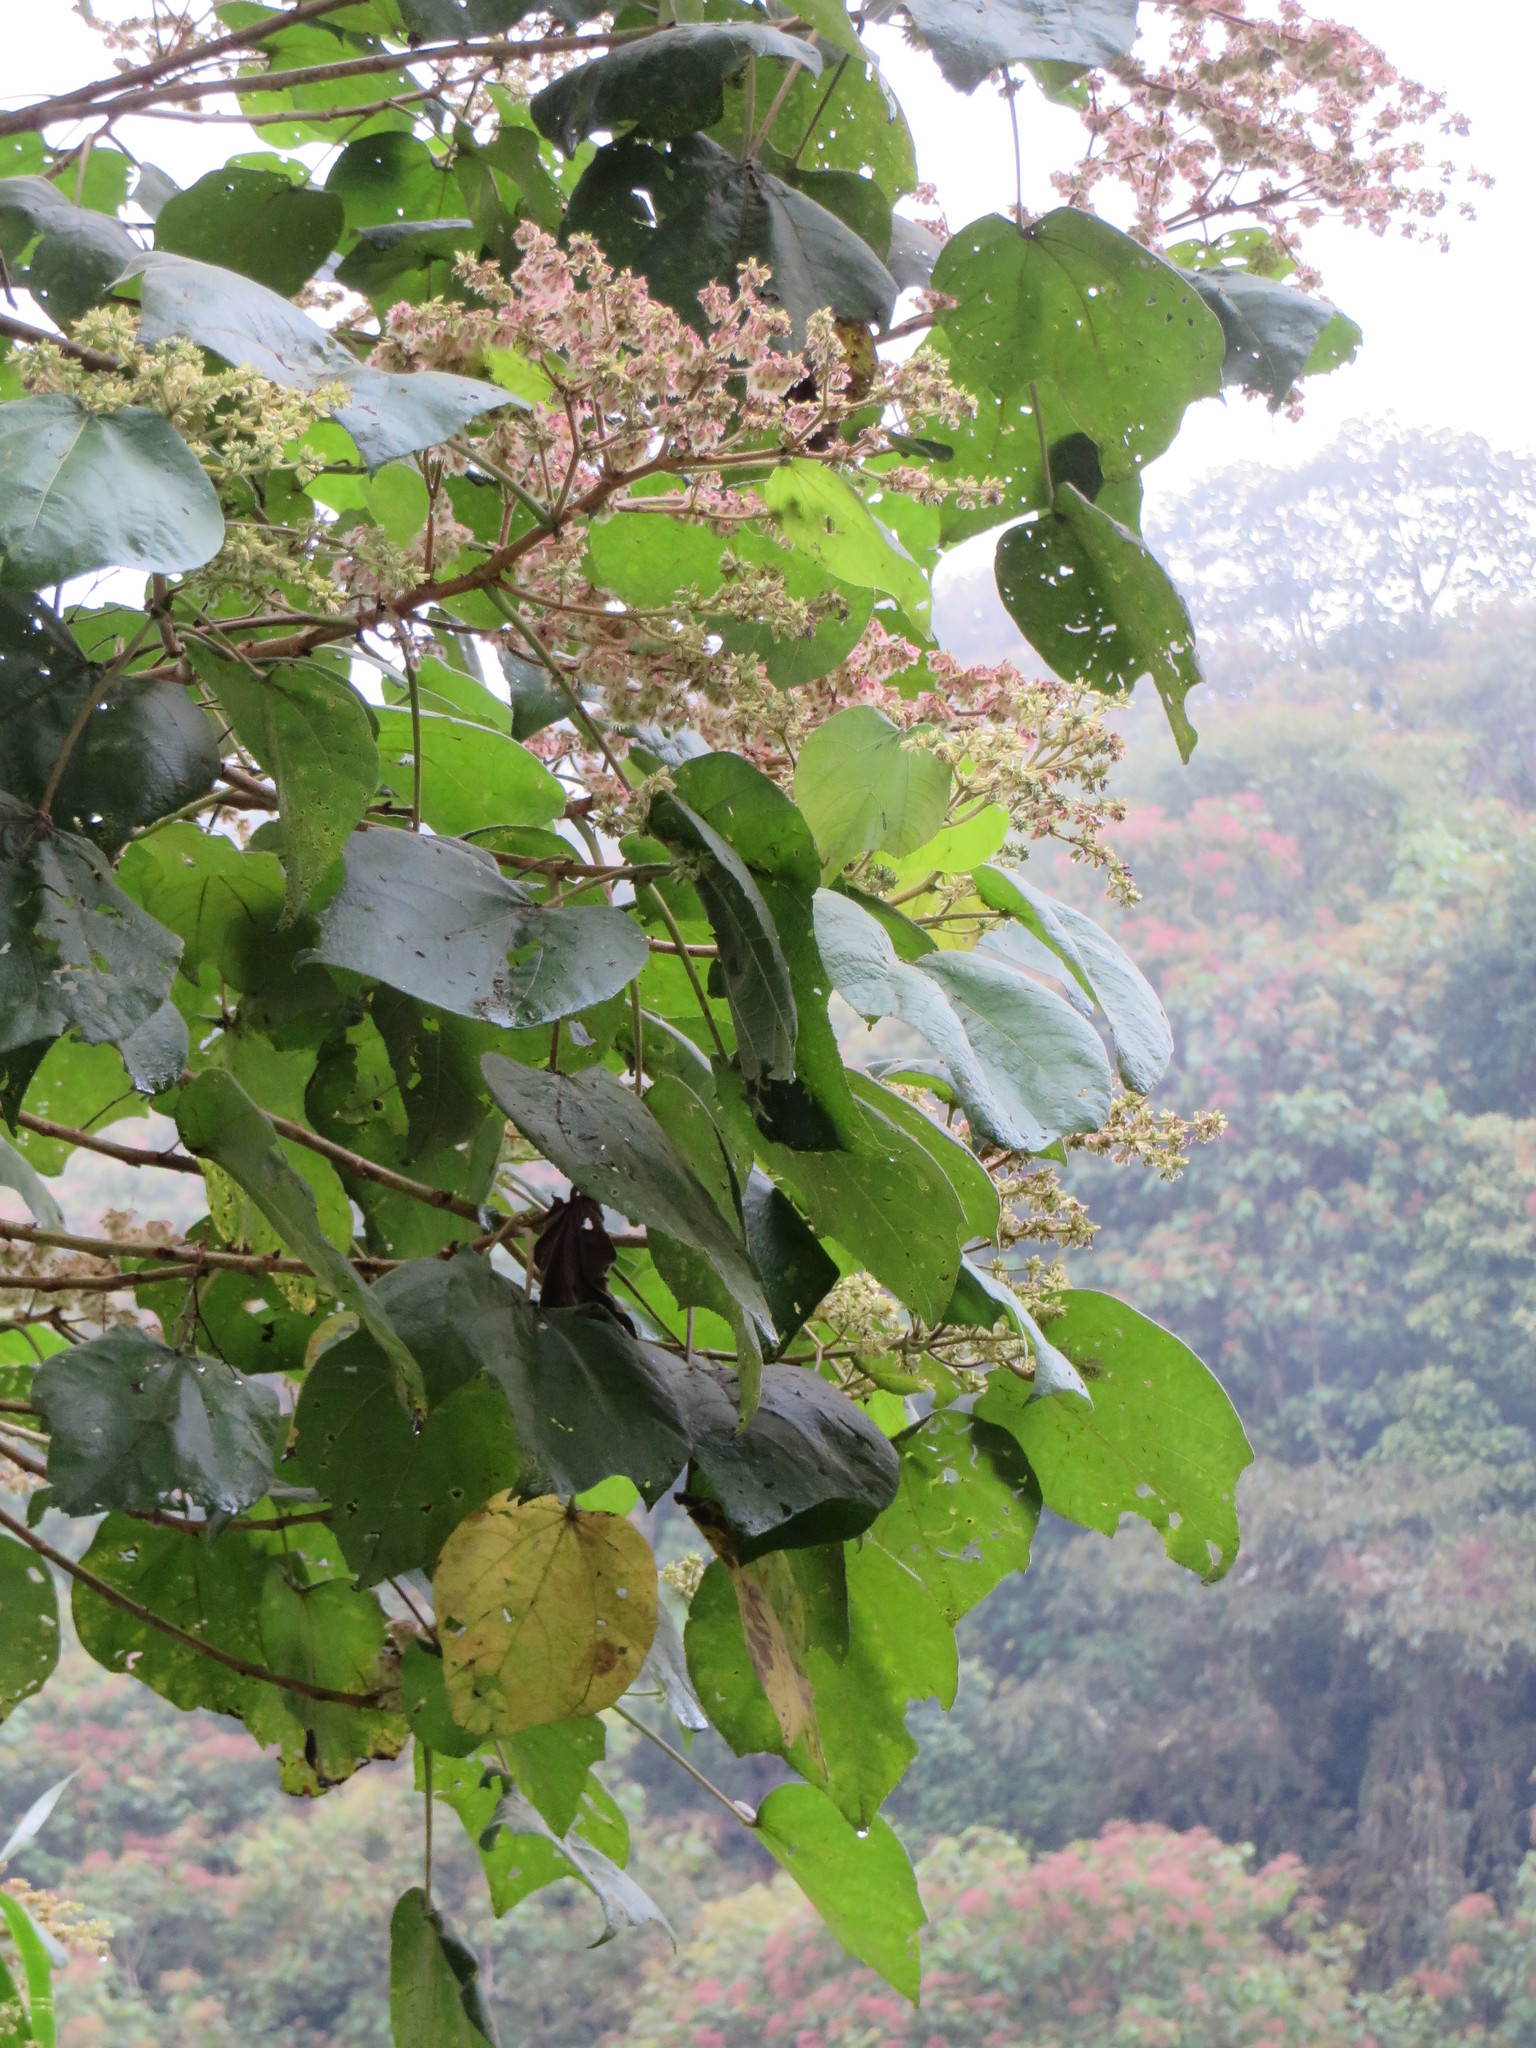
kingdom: Plantae
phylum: Tracheophyta
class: Magnoliopsida
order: Malvales
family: Malvaceae
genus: Heliocarpus
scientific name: Heliocarpus americanus
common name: White moho
